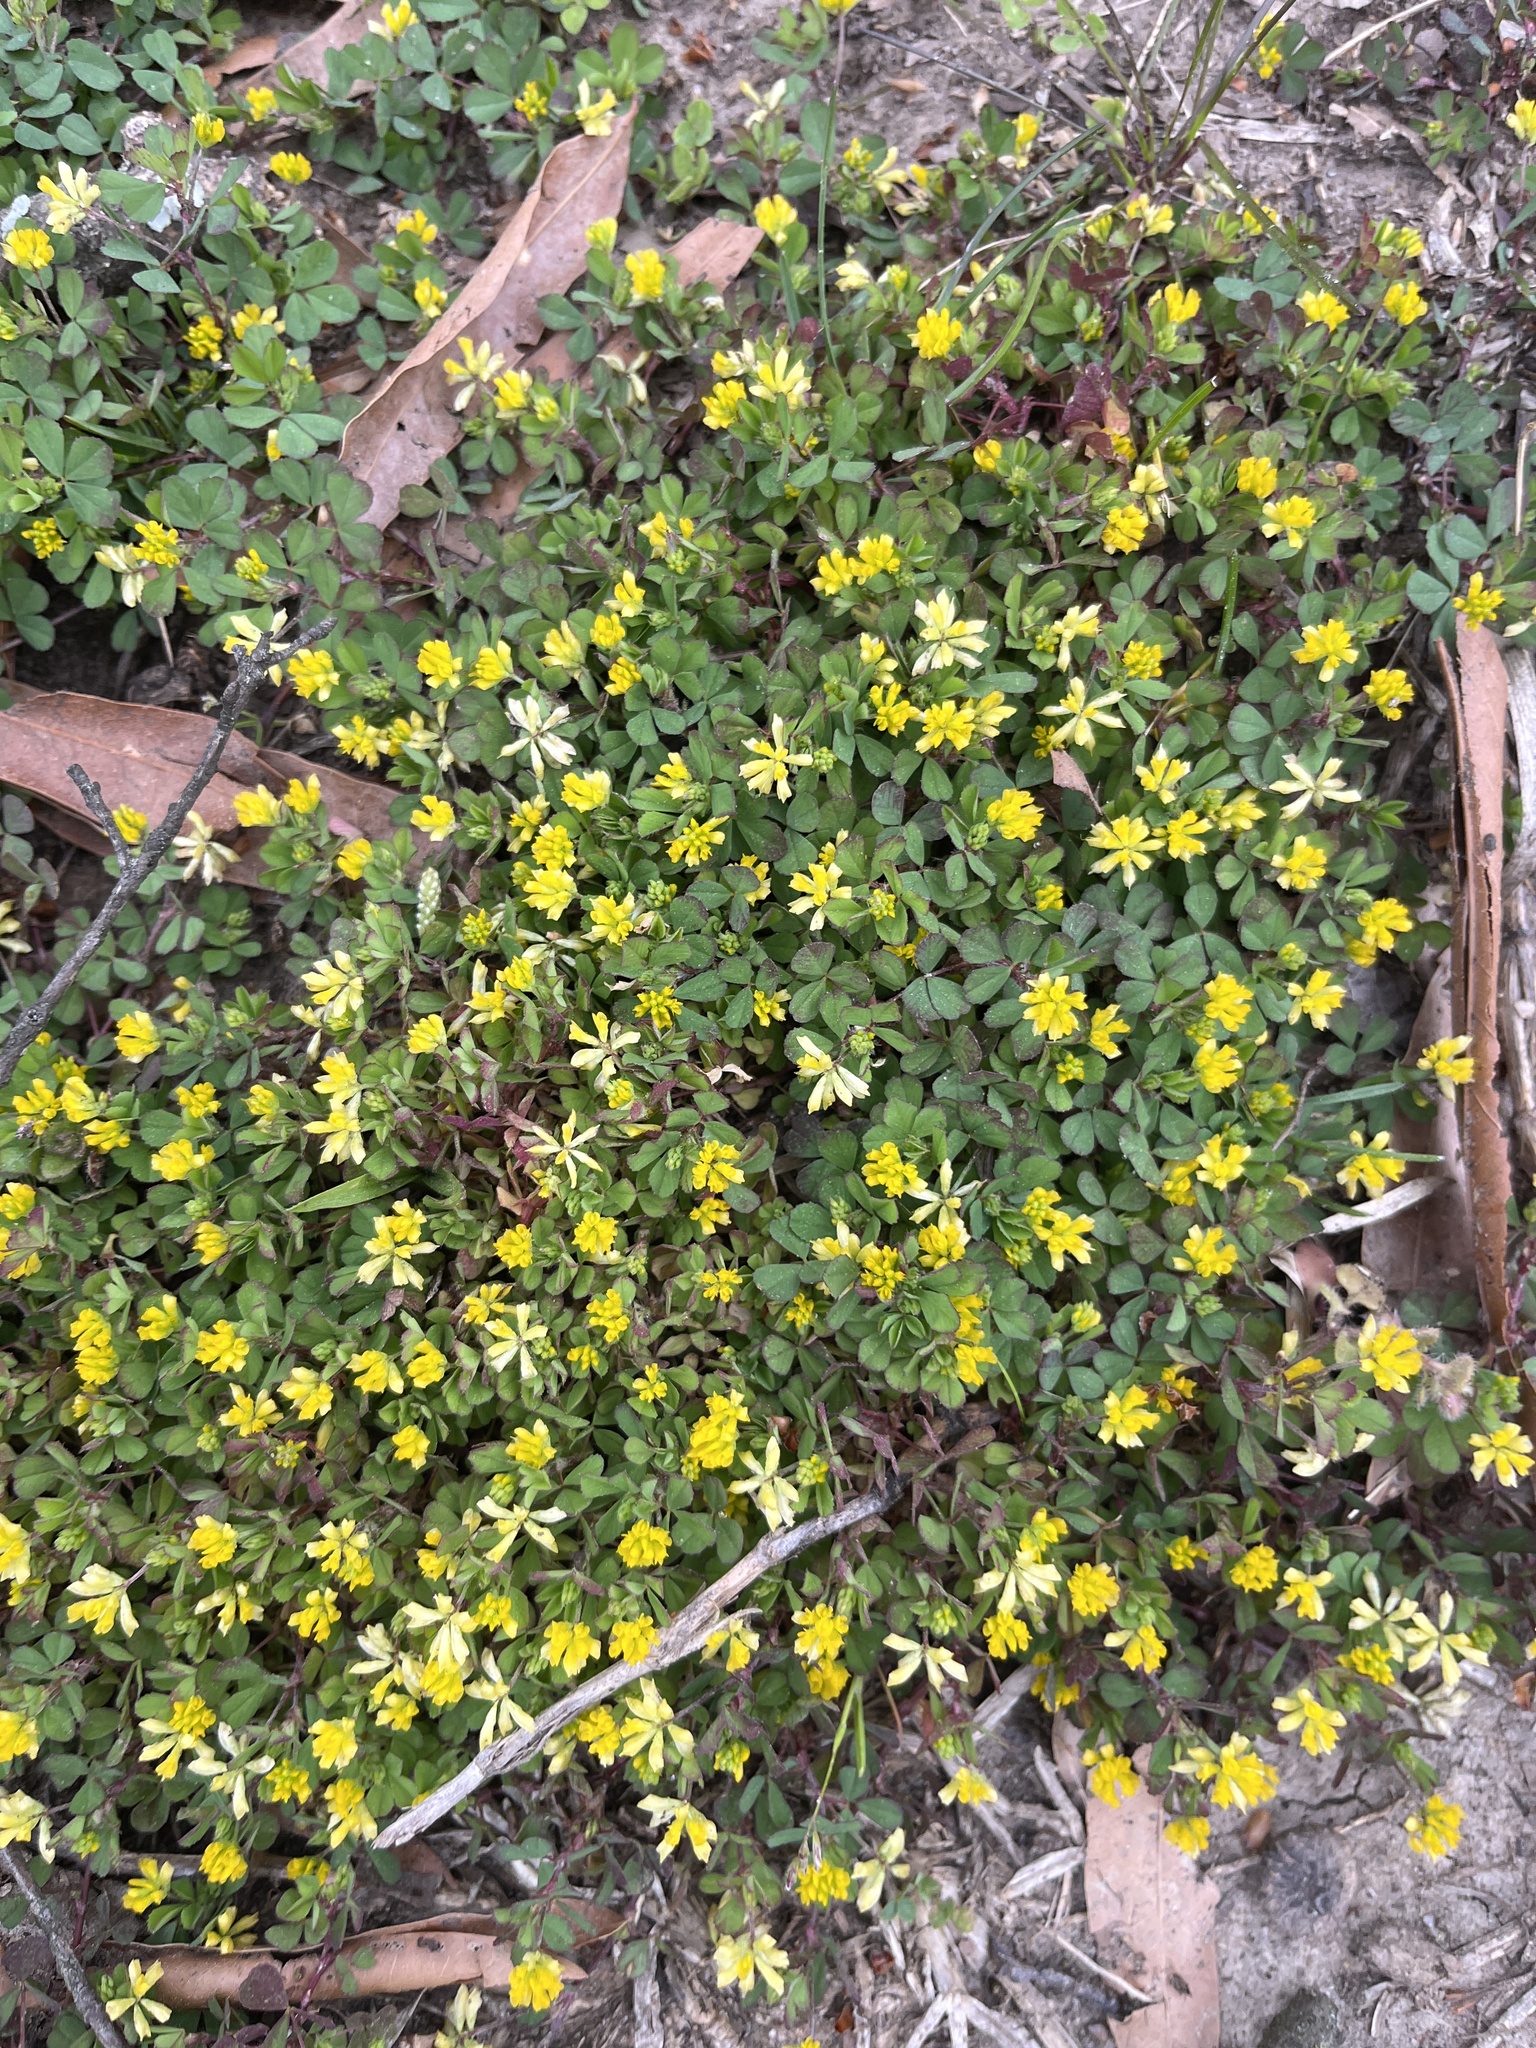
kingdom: Plantae
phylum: Tracheophyta
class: Magnoliopsida
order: Fabales
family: Fabaceae
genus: Trifolium
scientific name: Trifolium dubium
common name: Suckling clover
